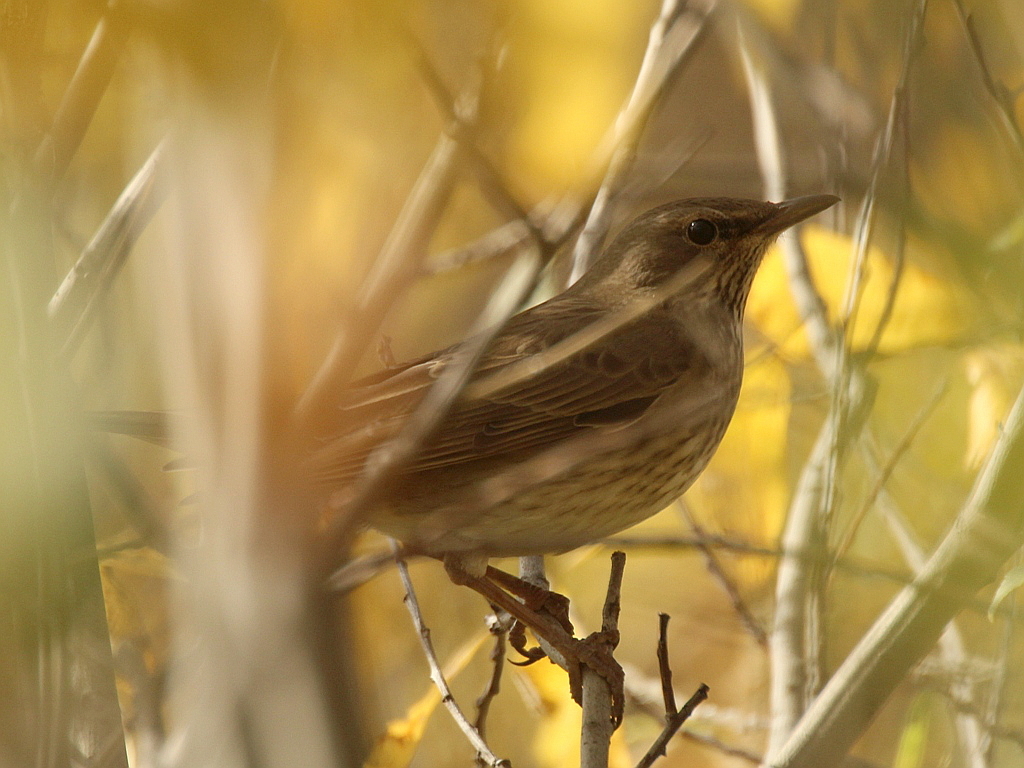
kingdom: Animalia
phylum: Chordata
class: Aves
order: Passeriformes
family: Turdidae
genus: Turdus
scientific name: Turdus atrogularis
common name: Black-throated thrush
